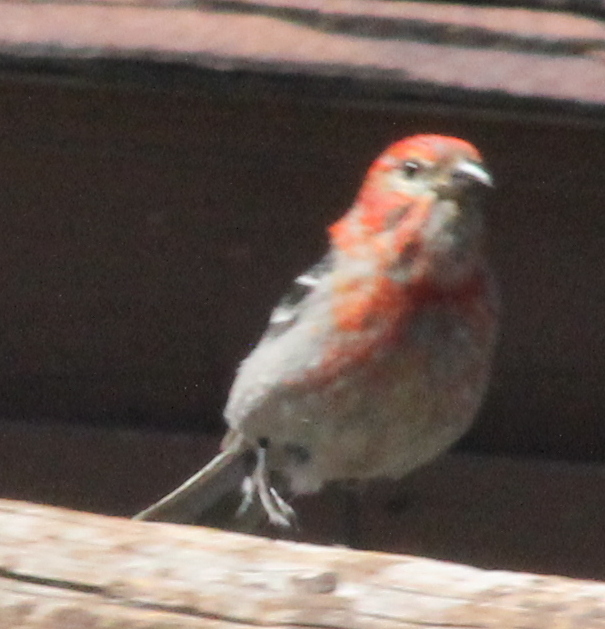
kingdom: Animalia
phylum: Chordata
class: Aves
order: Passeriformes
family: Fringillidae
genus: Pinicola
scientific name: Pinicola enucleator
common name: Pine grosbeak
